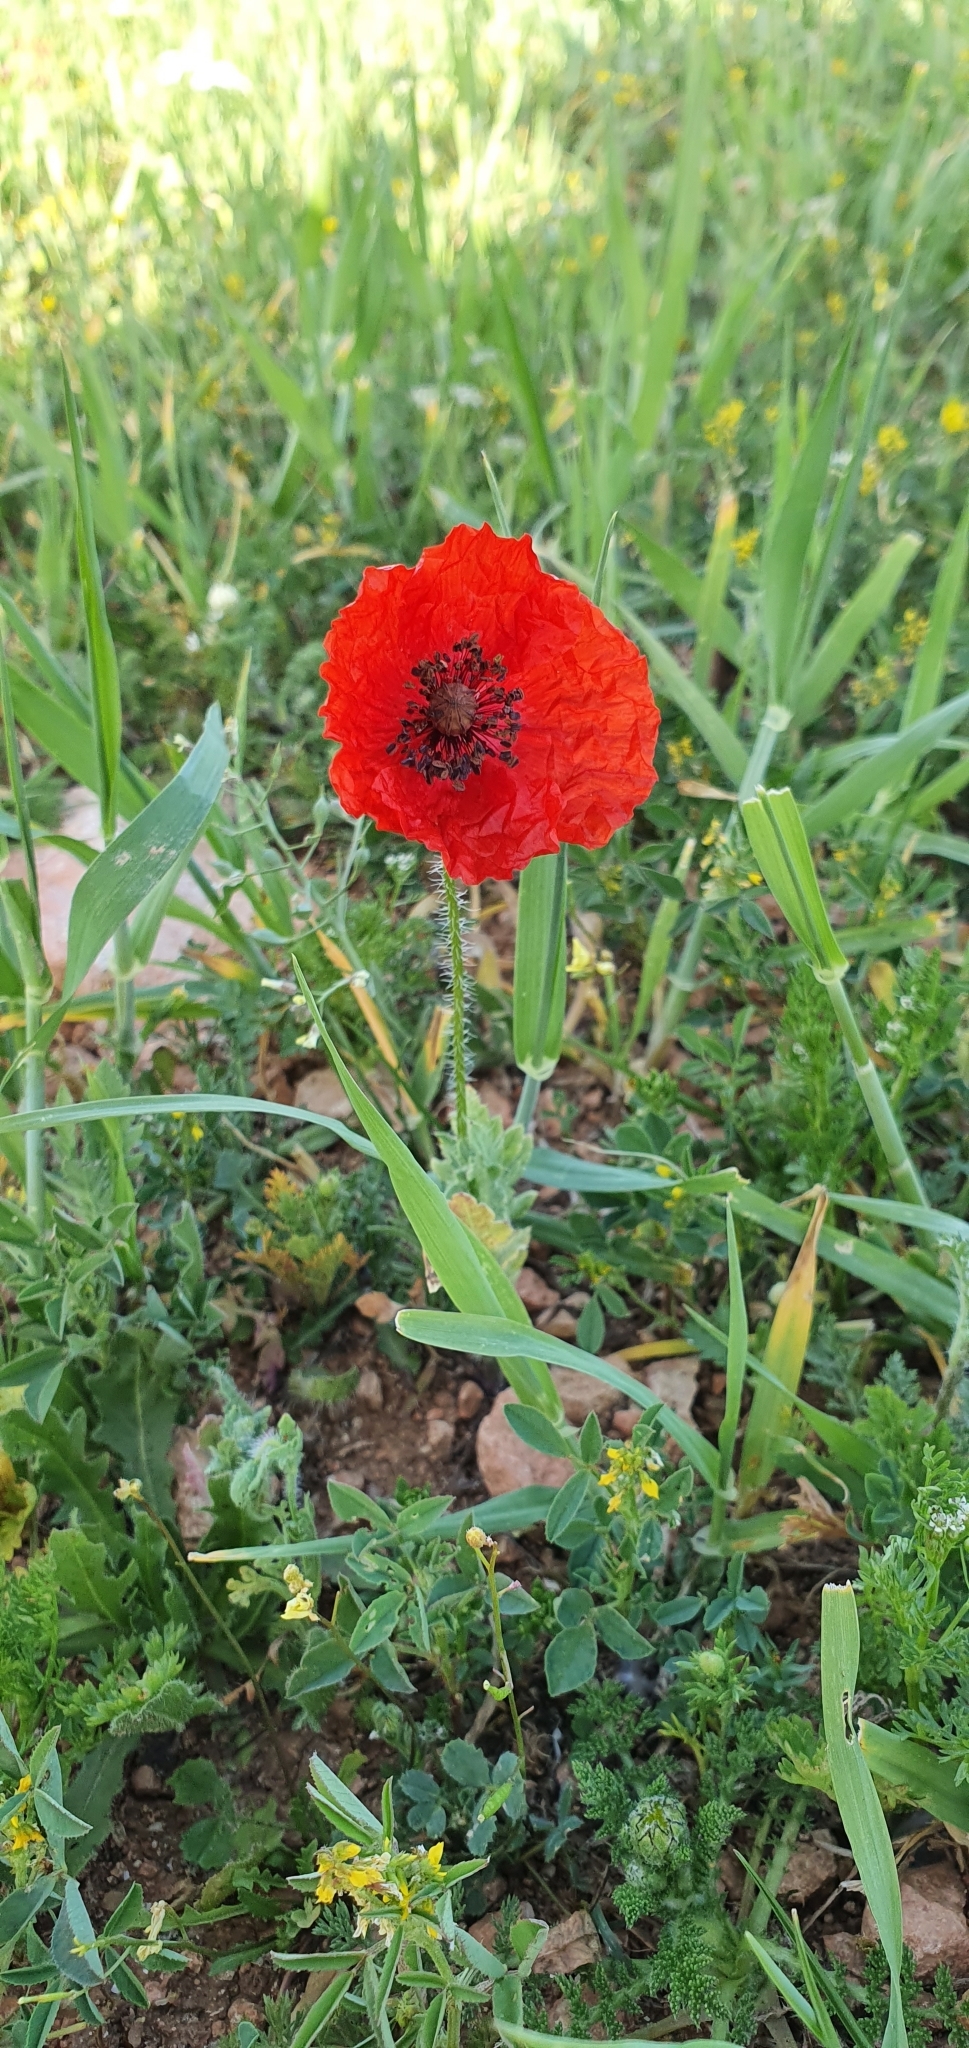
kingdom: Plantae
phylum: Tracheophyta
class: Magnoliopsida
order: Ranunculales
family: Papaveraceae
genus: Papaver
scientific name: Papaver rhoeas
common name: Corn poppy
